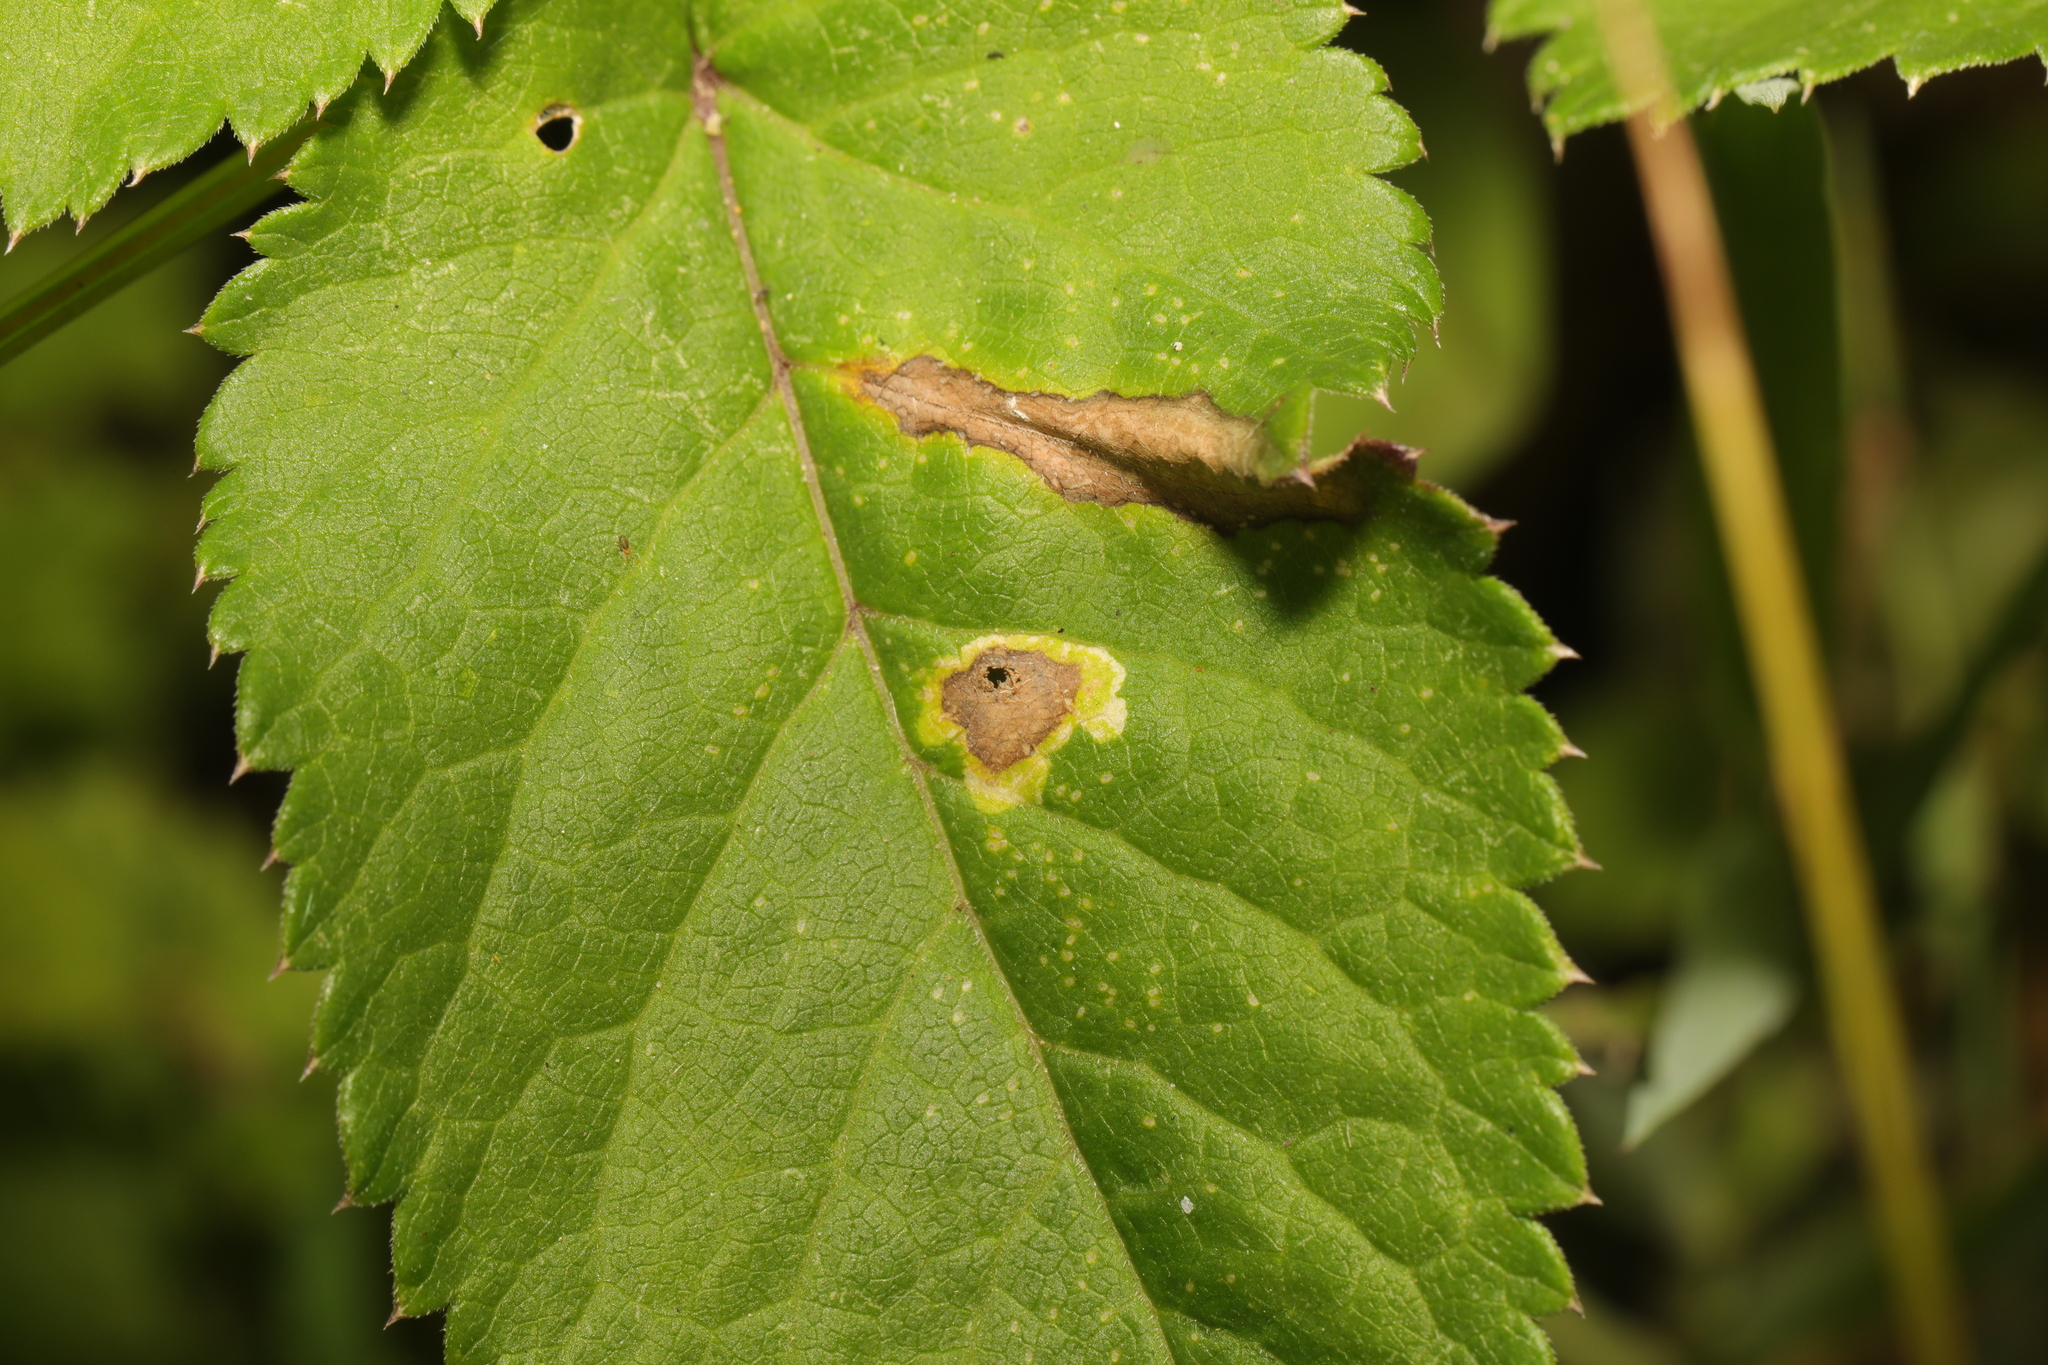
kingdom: Animalia
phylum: Arthropoda
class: Insecta
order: Diptera
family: Agromyzidae
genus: Phytomyza
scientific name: Phytomyza angelicae
